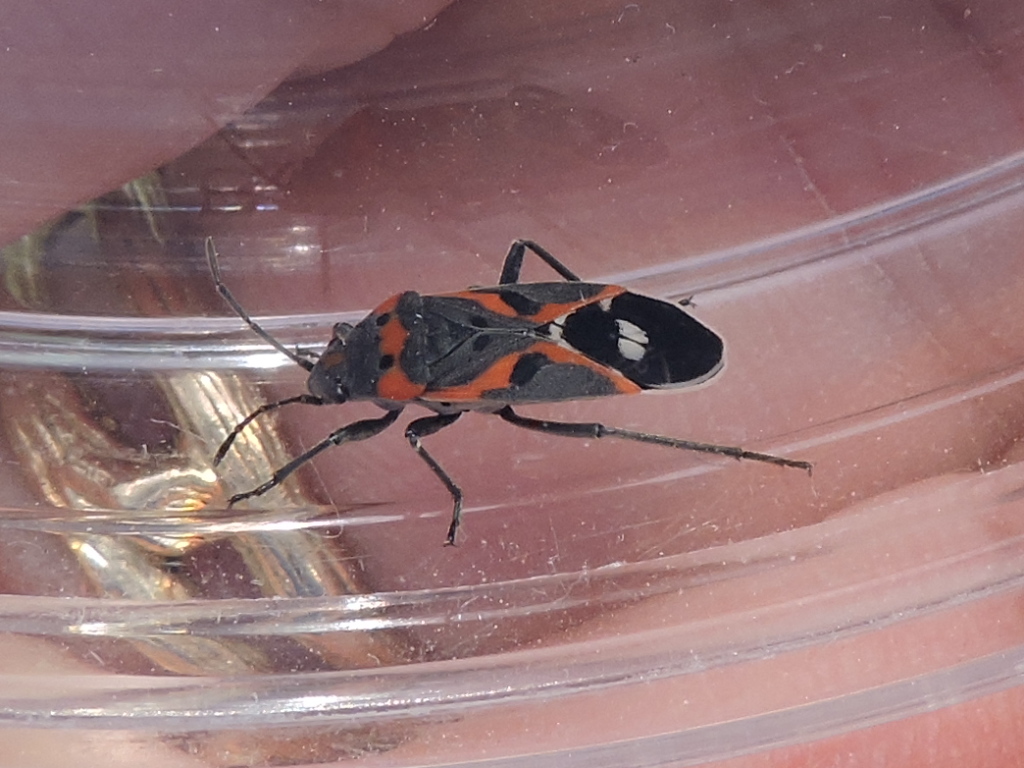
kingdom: Animalia
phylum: Arthropoda
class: Insecta
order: Hemiptera
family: Lygaeidae
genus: Lygaeus
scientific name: Lygaeus kalmii
